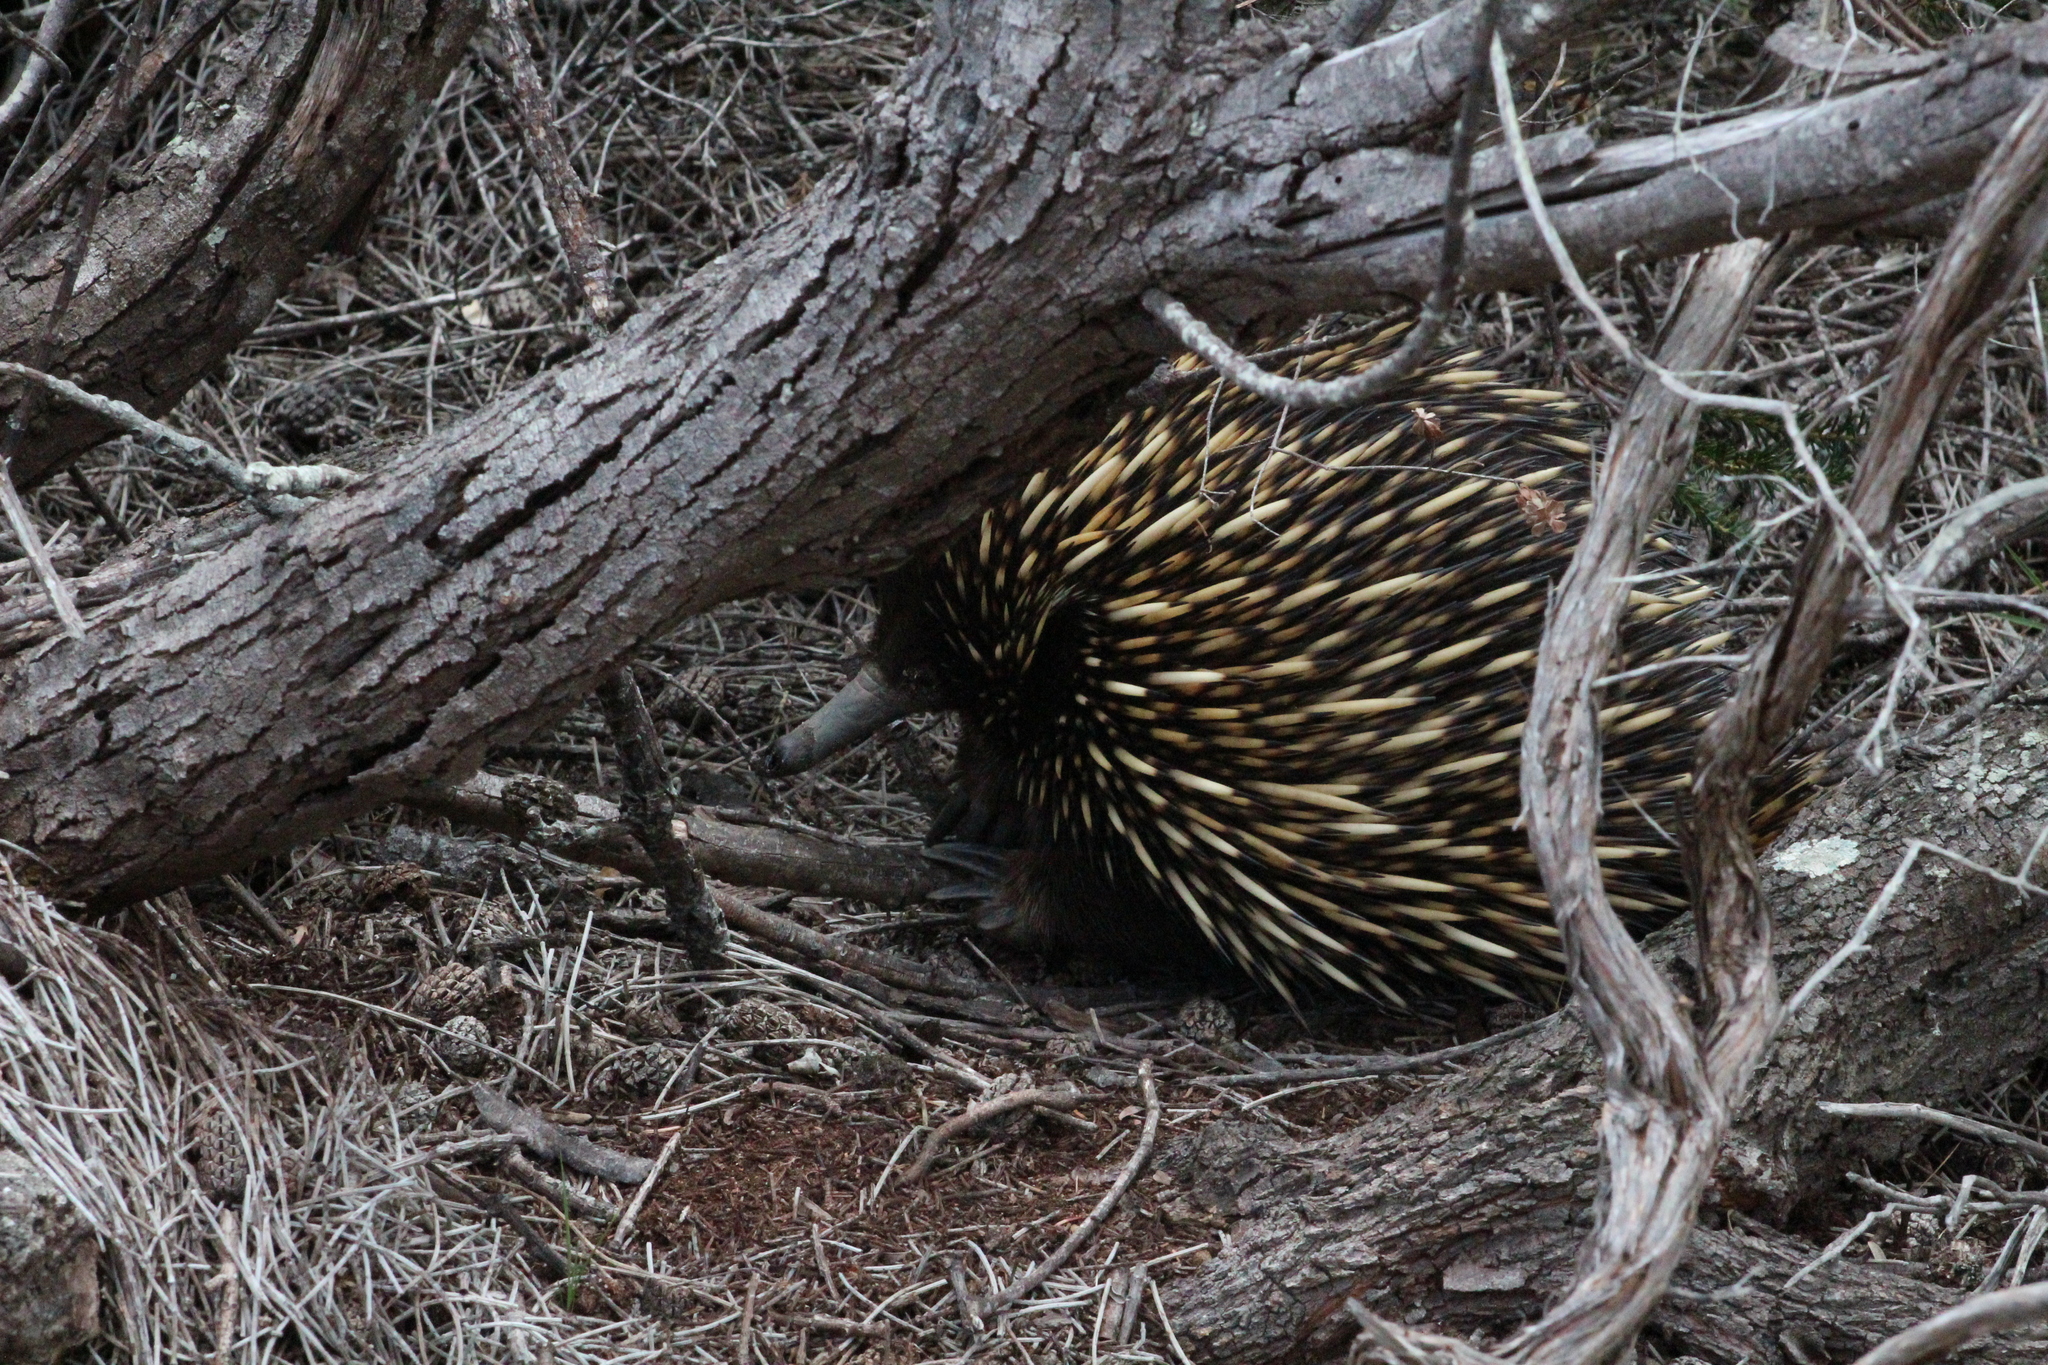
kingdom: Animalia
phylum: Chordata
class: Mammalia
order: Monotremata
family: Tachyglossidae
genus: Tachyglossus
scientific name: Tachyglossus aculeatus
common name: Short-beaked echidna
